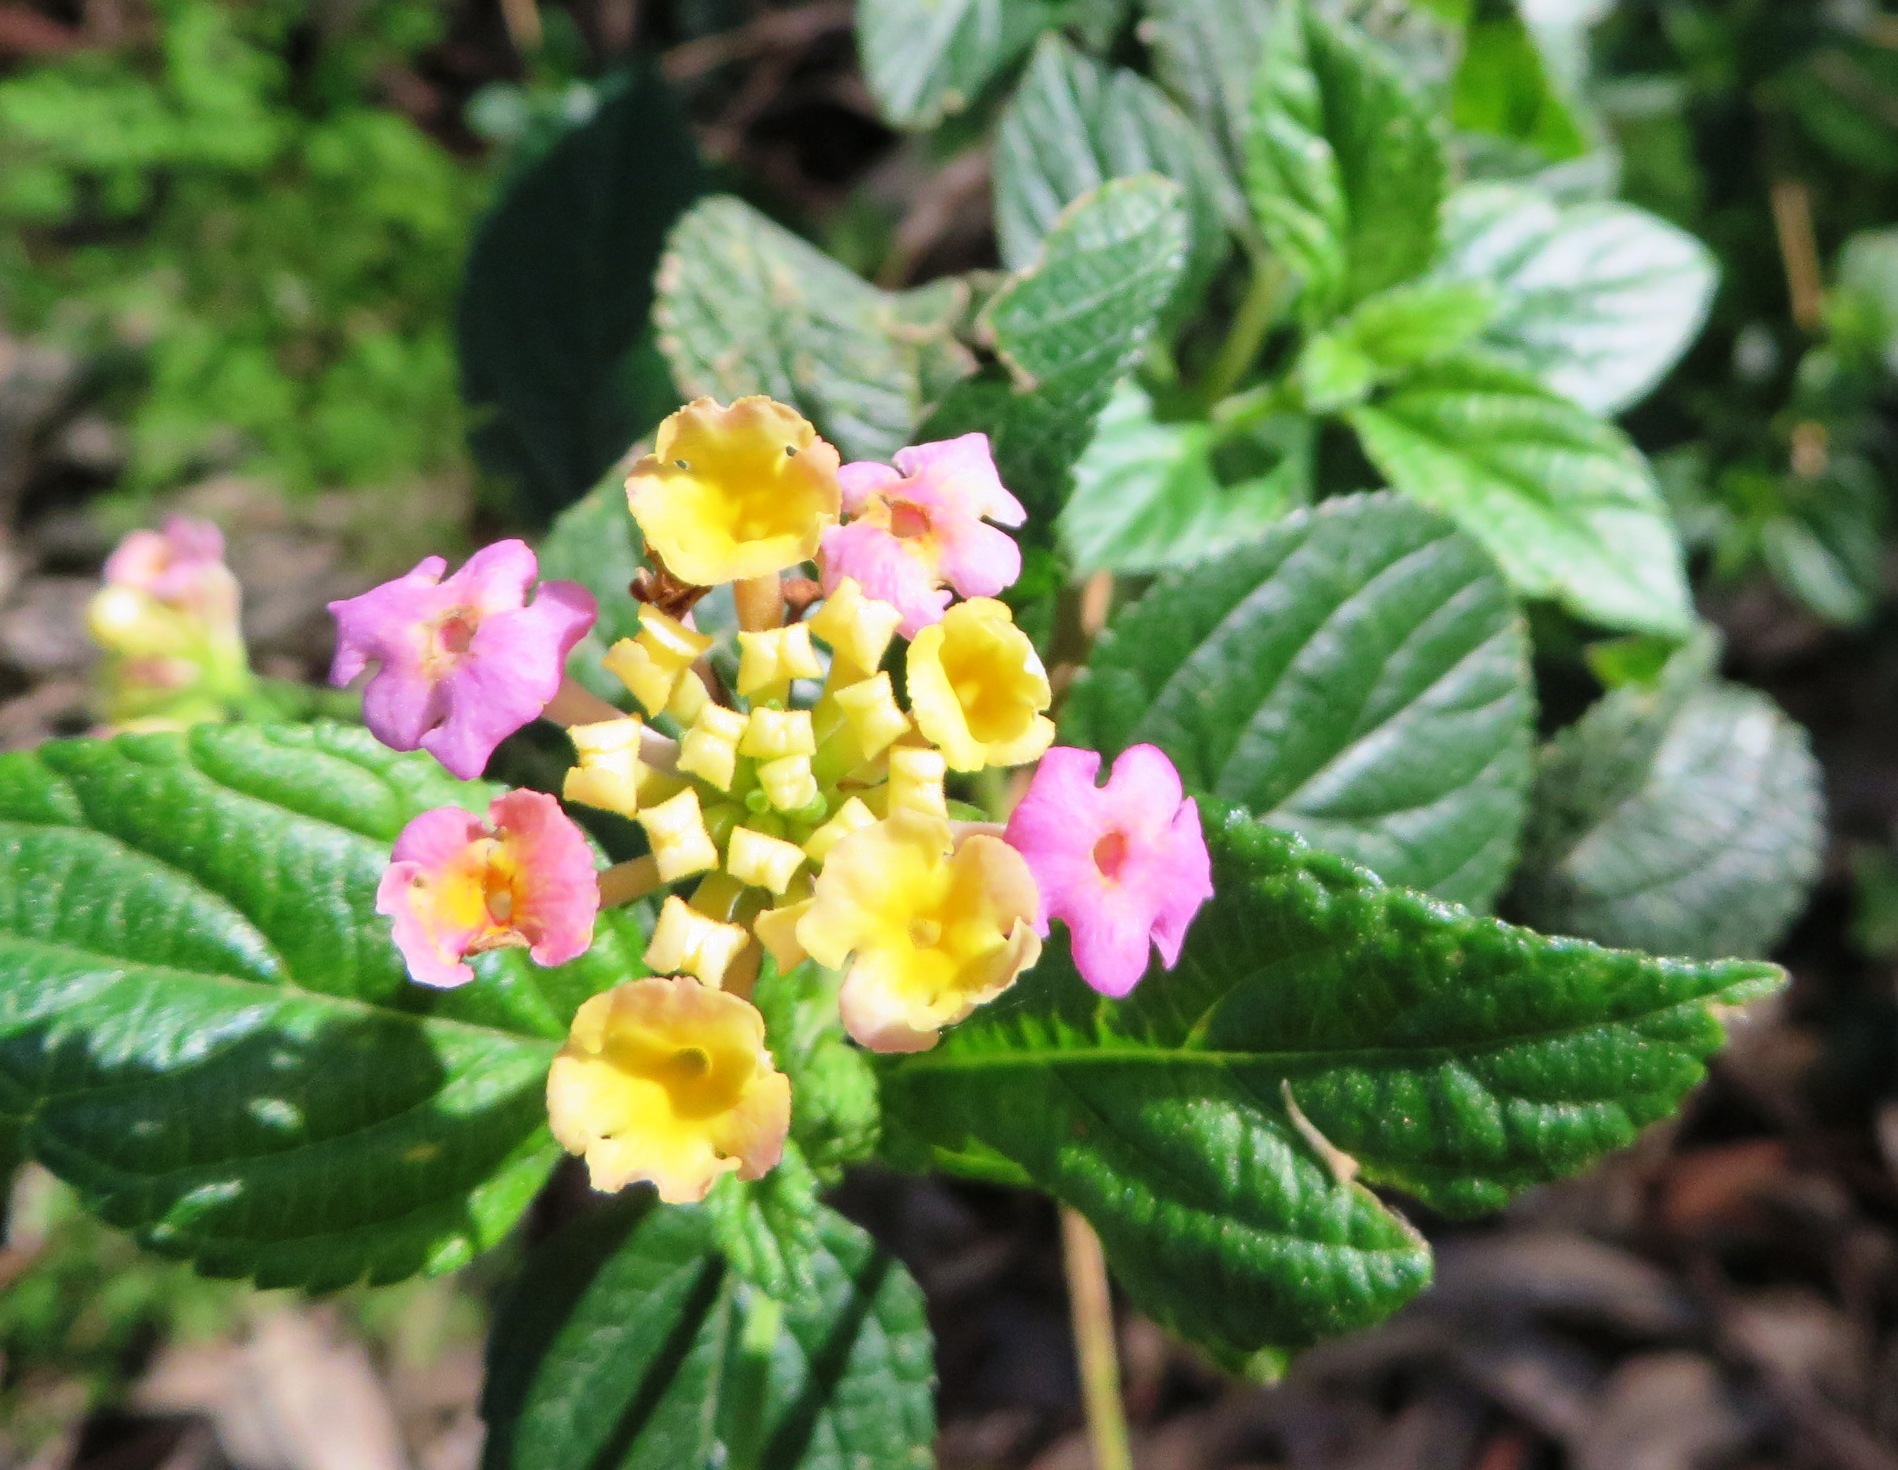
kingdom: Plantae
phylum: Tracheophyta
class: Magnoliopsida
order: Lamiales
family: Verbenaceae
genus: Lantana
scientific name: Lantana camara
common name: Lantana
